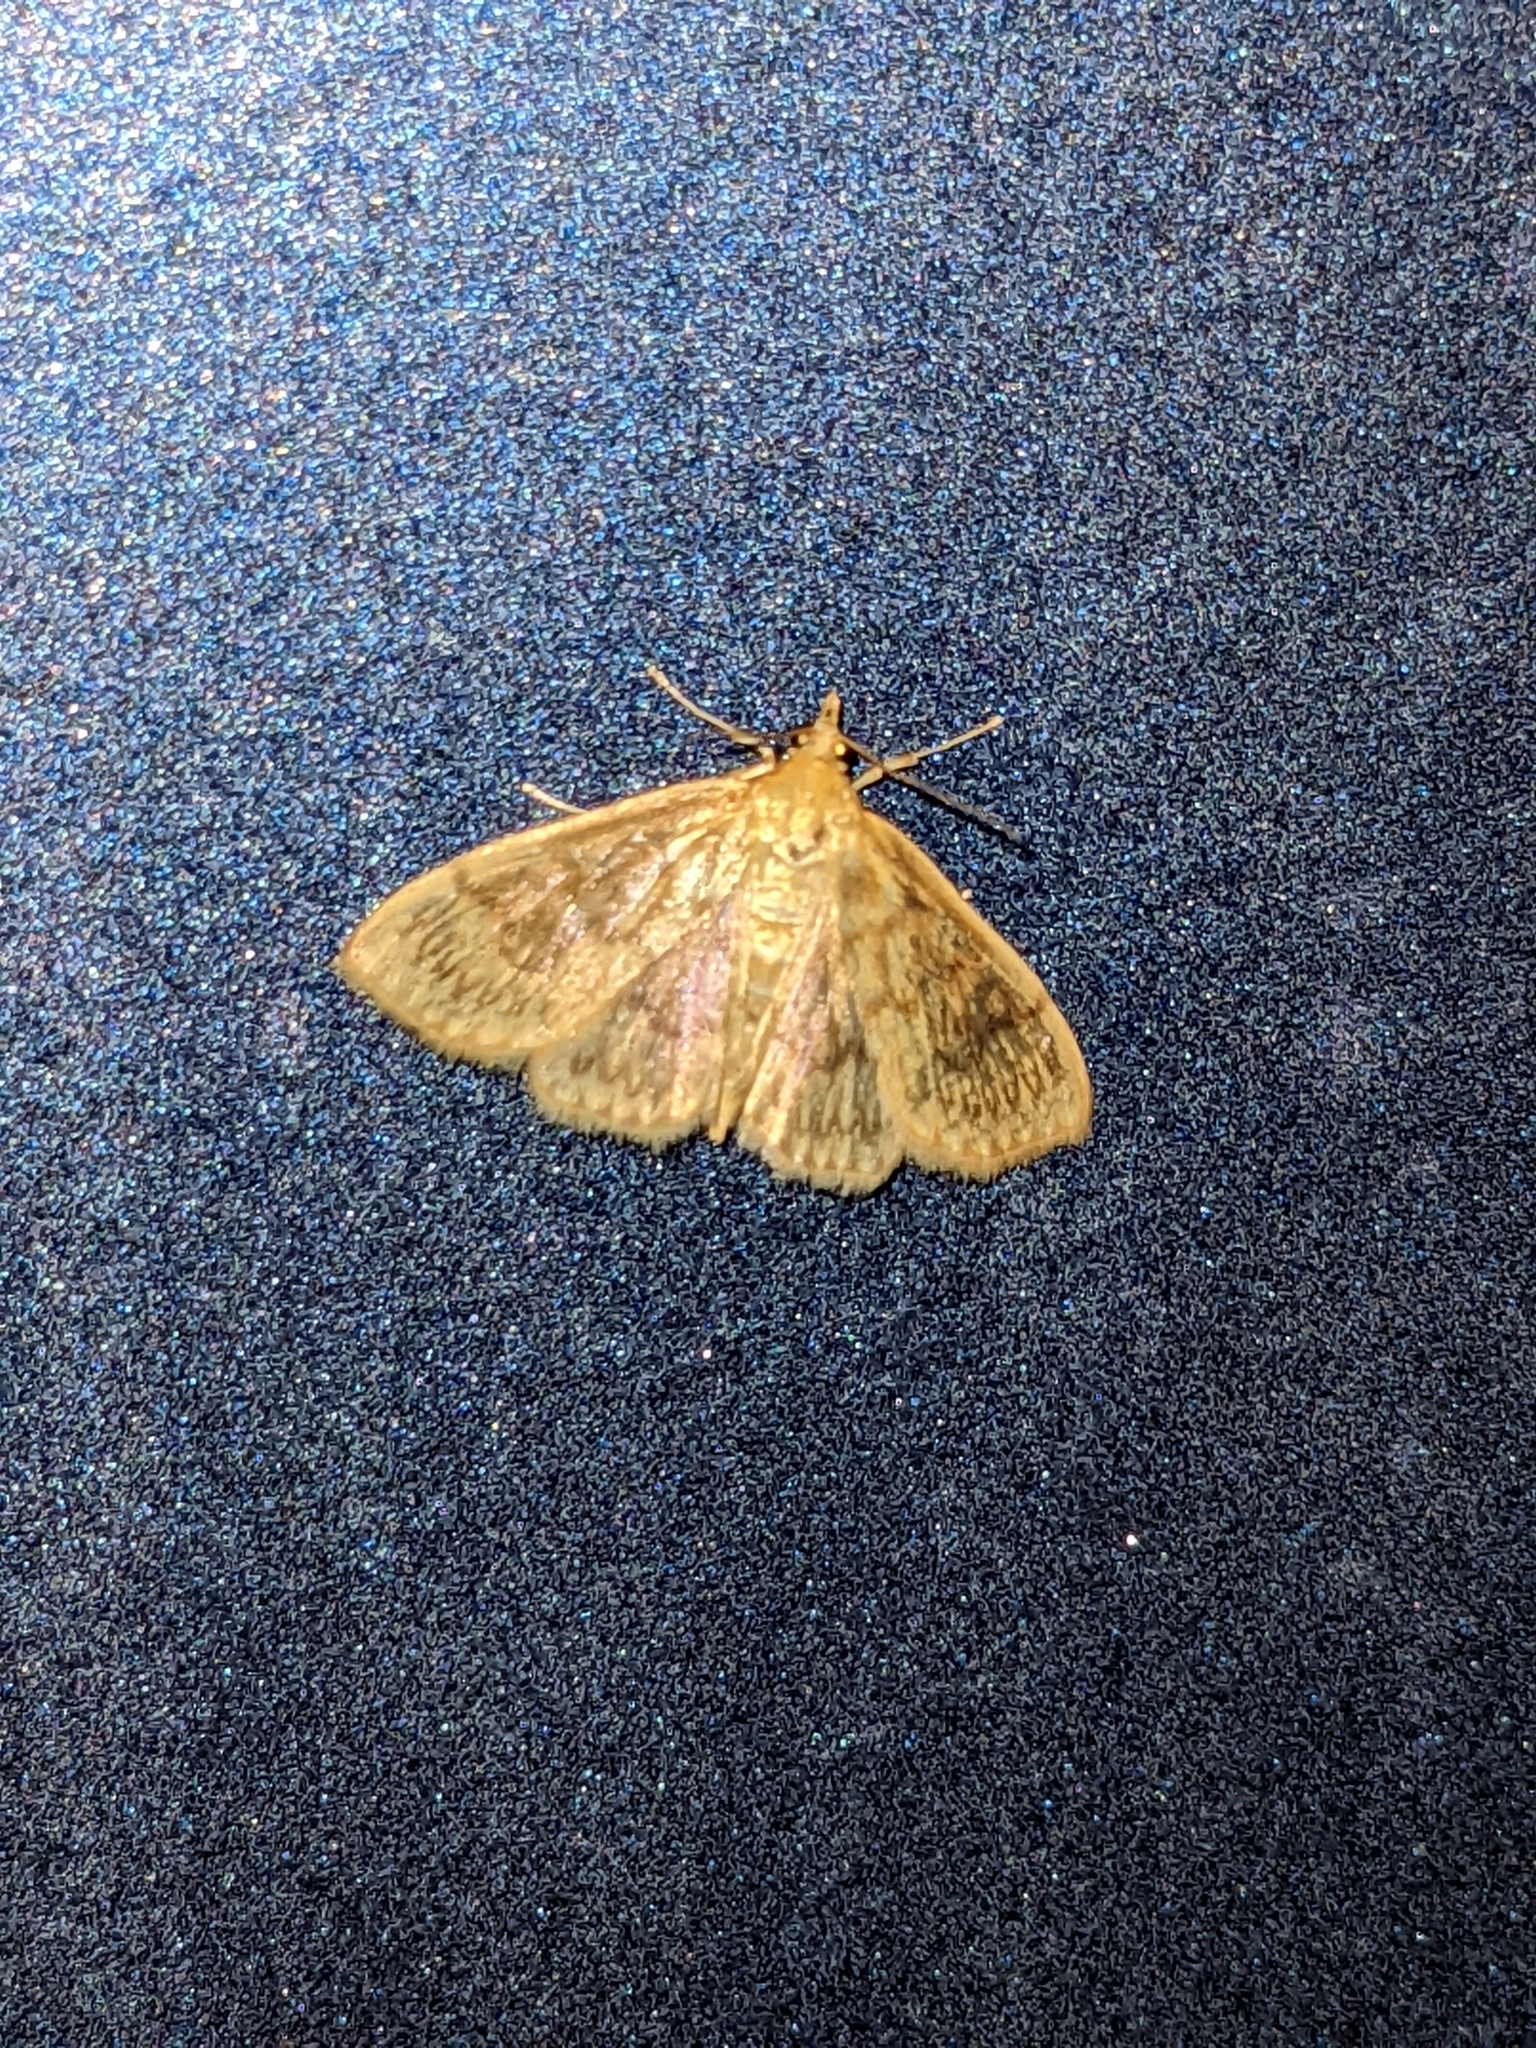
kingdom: Animalia
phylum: Arthropoda
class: Insecta
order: Lepidoptera
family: Crambidae
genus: Crocidophora
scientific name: Crocidophora serratissimalis
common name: Saw-toothed crocidophora moth
